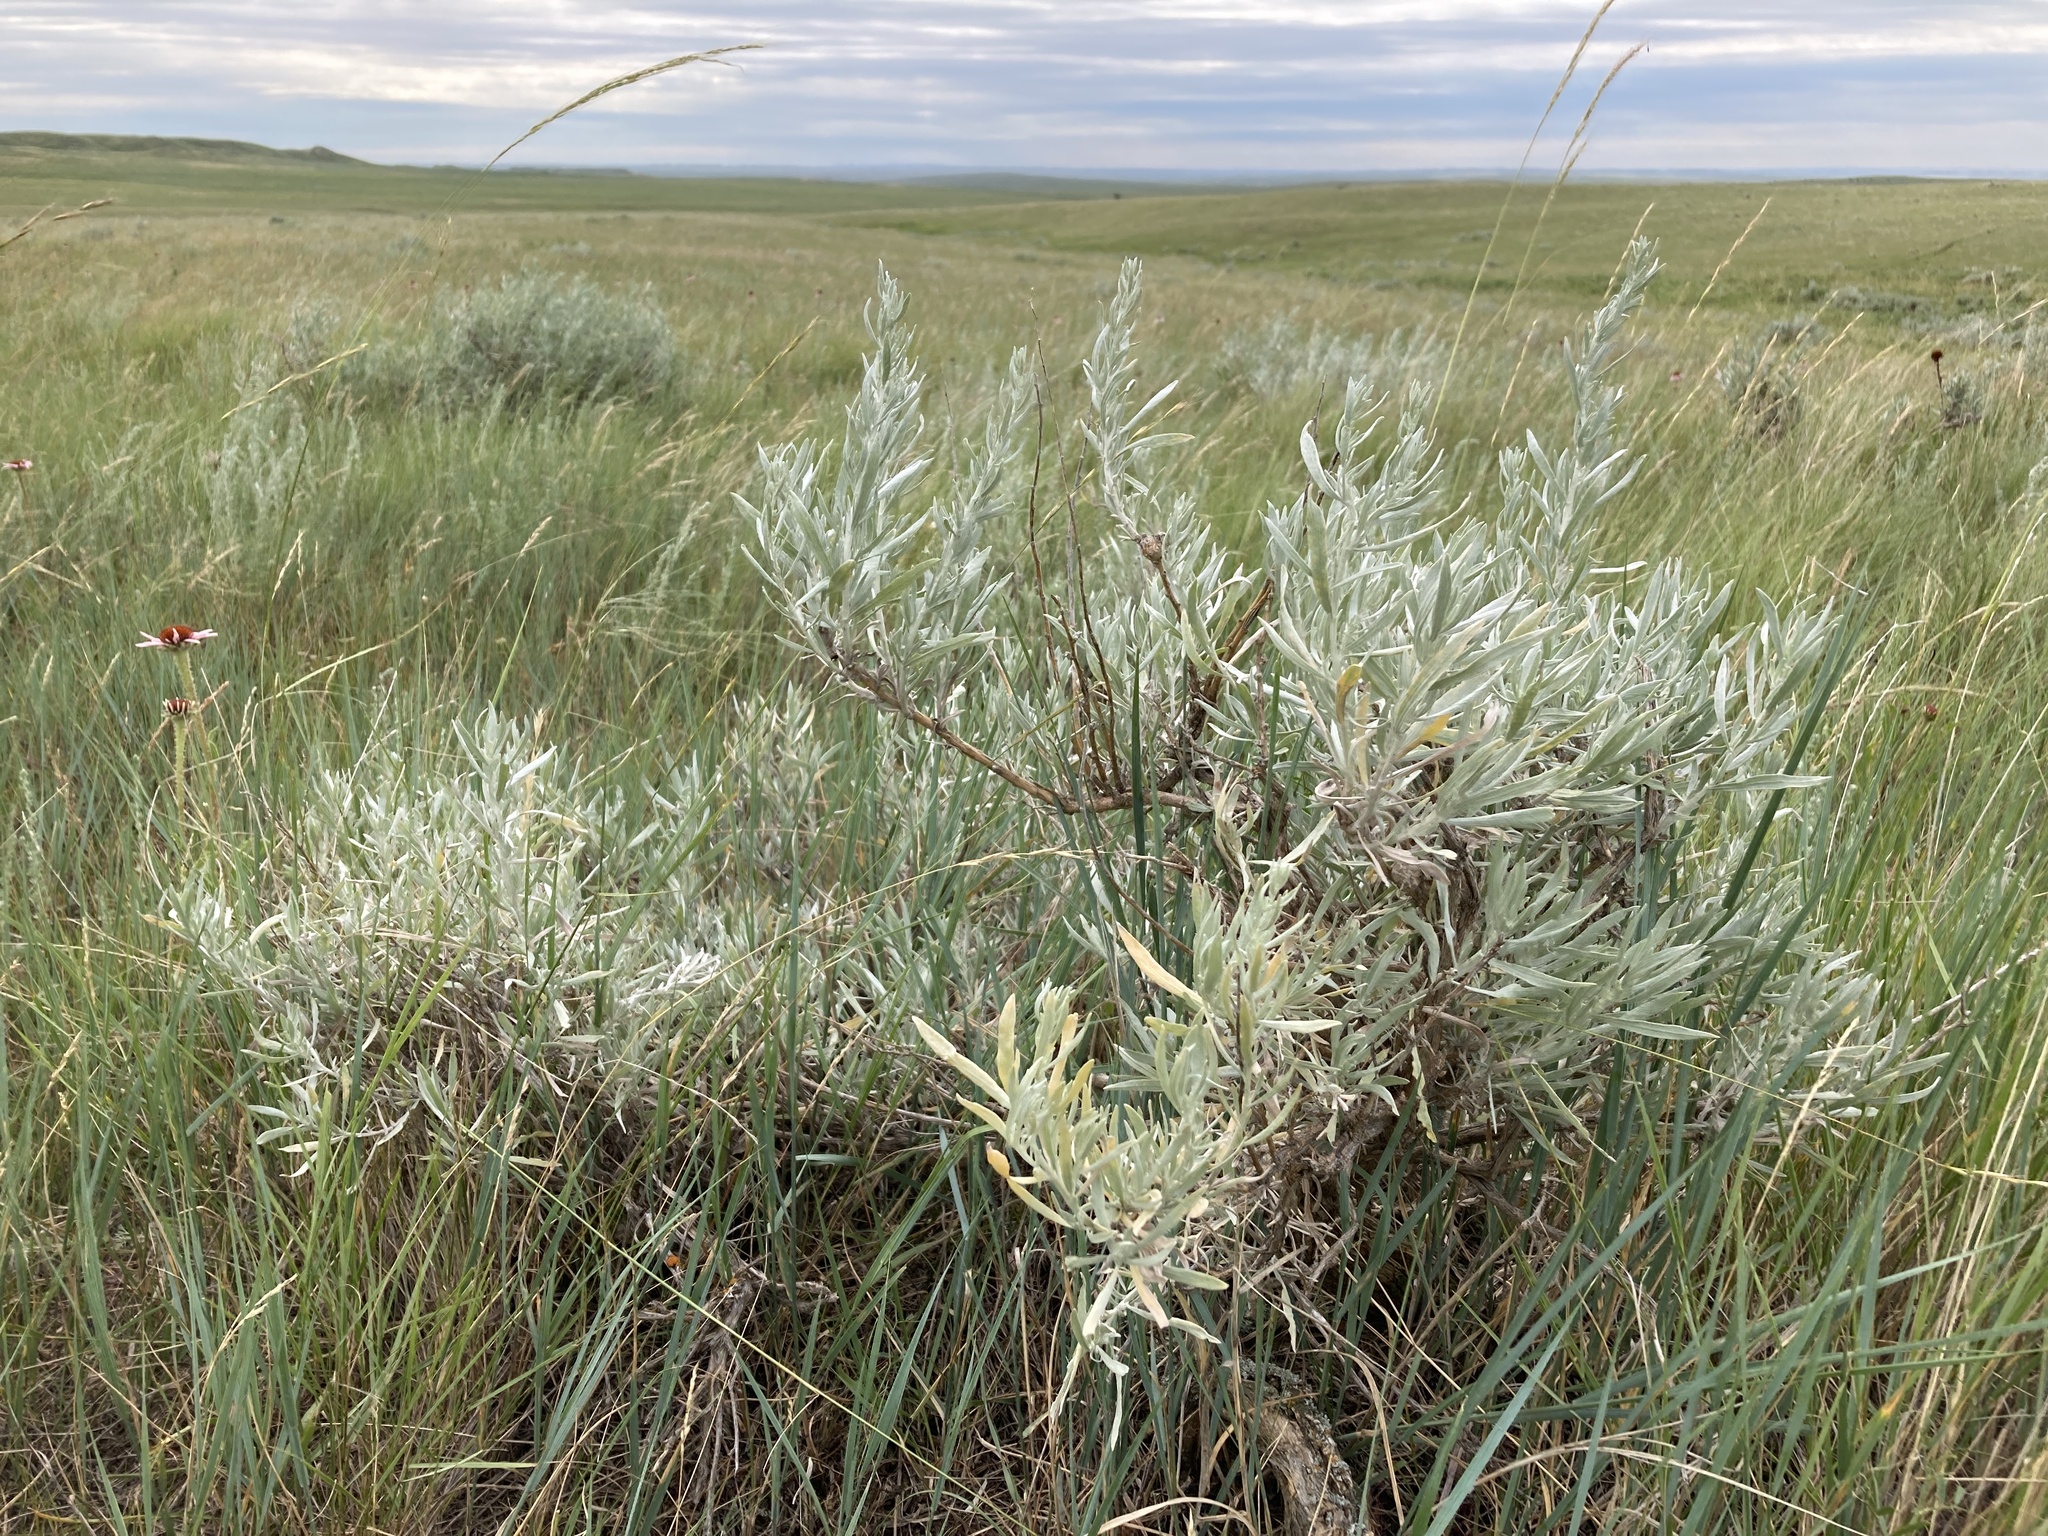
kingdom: Plantae
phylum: Tracheophyta
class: Magnoliopsida
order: Asterales
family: Asteraceae
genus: Artemisia
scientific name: Artemisia cana
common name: Silver sagebrush
